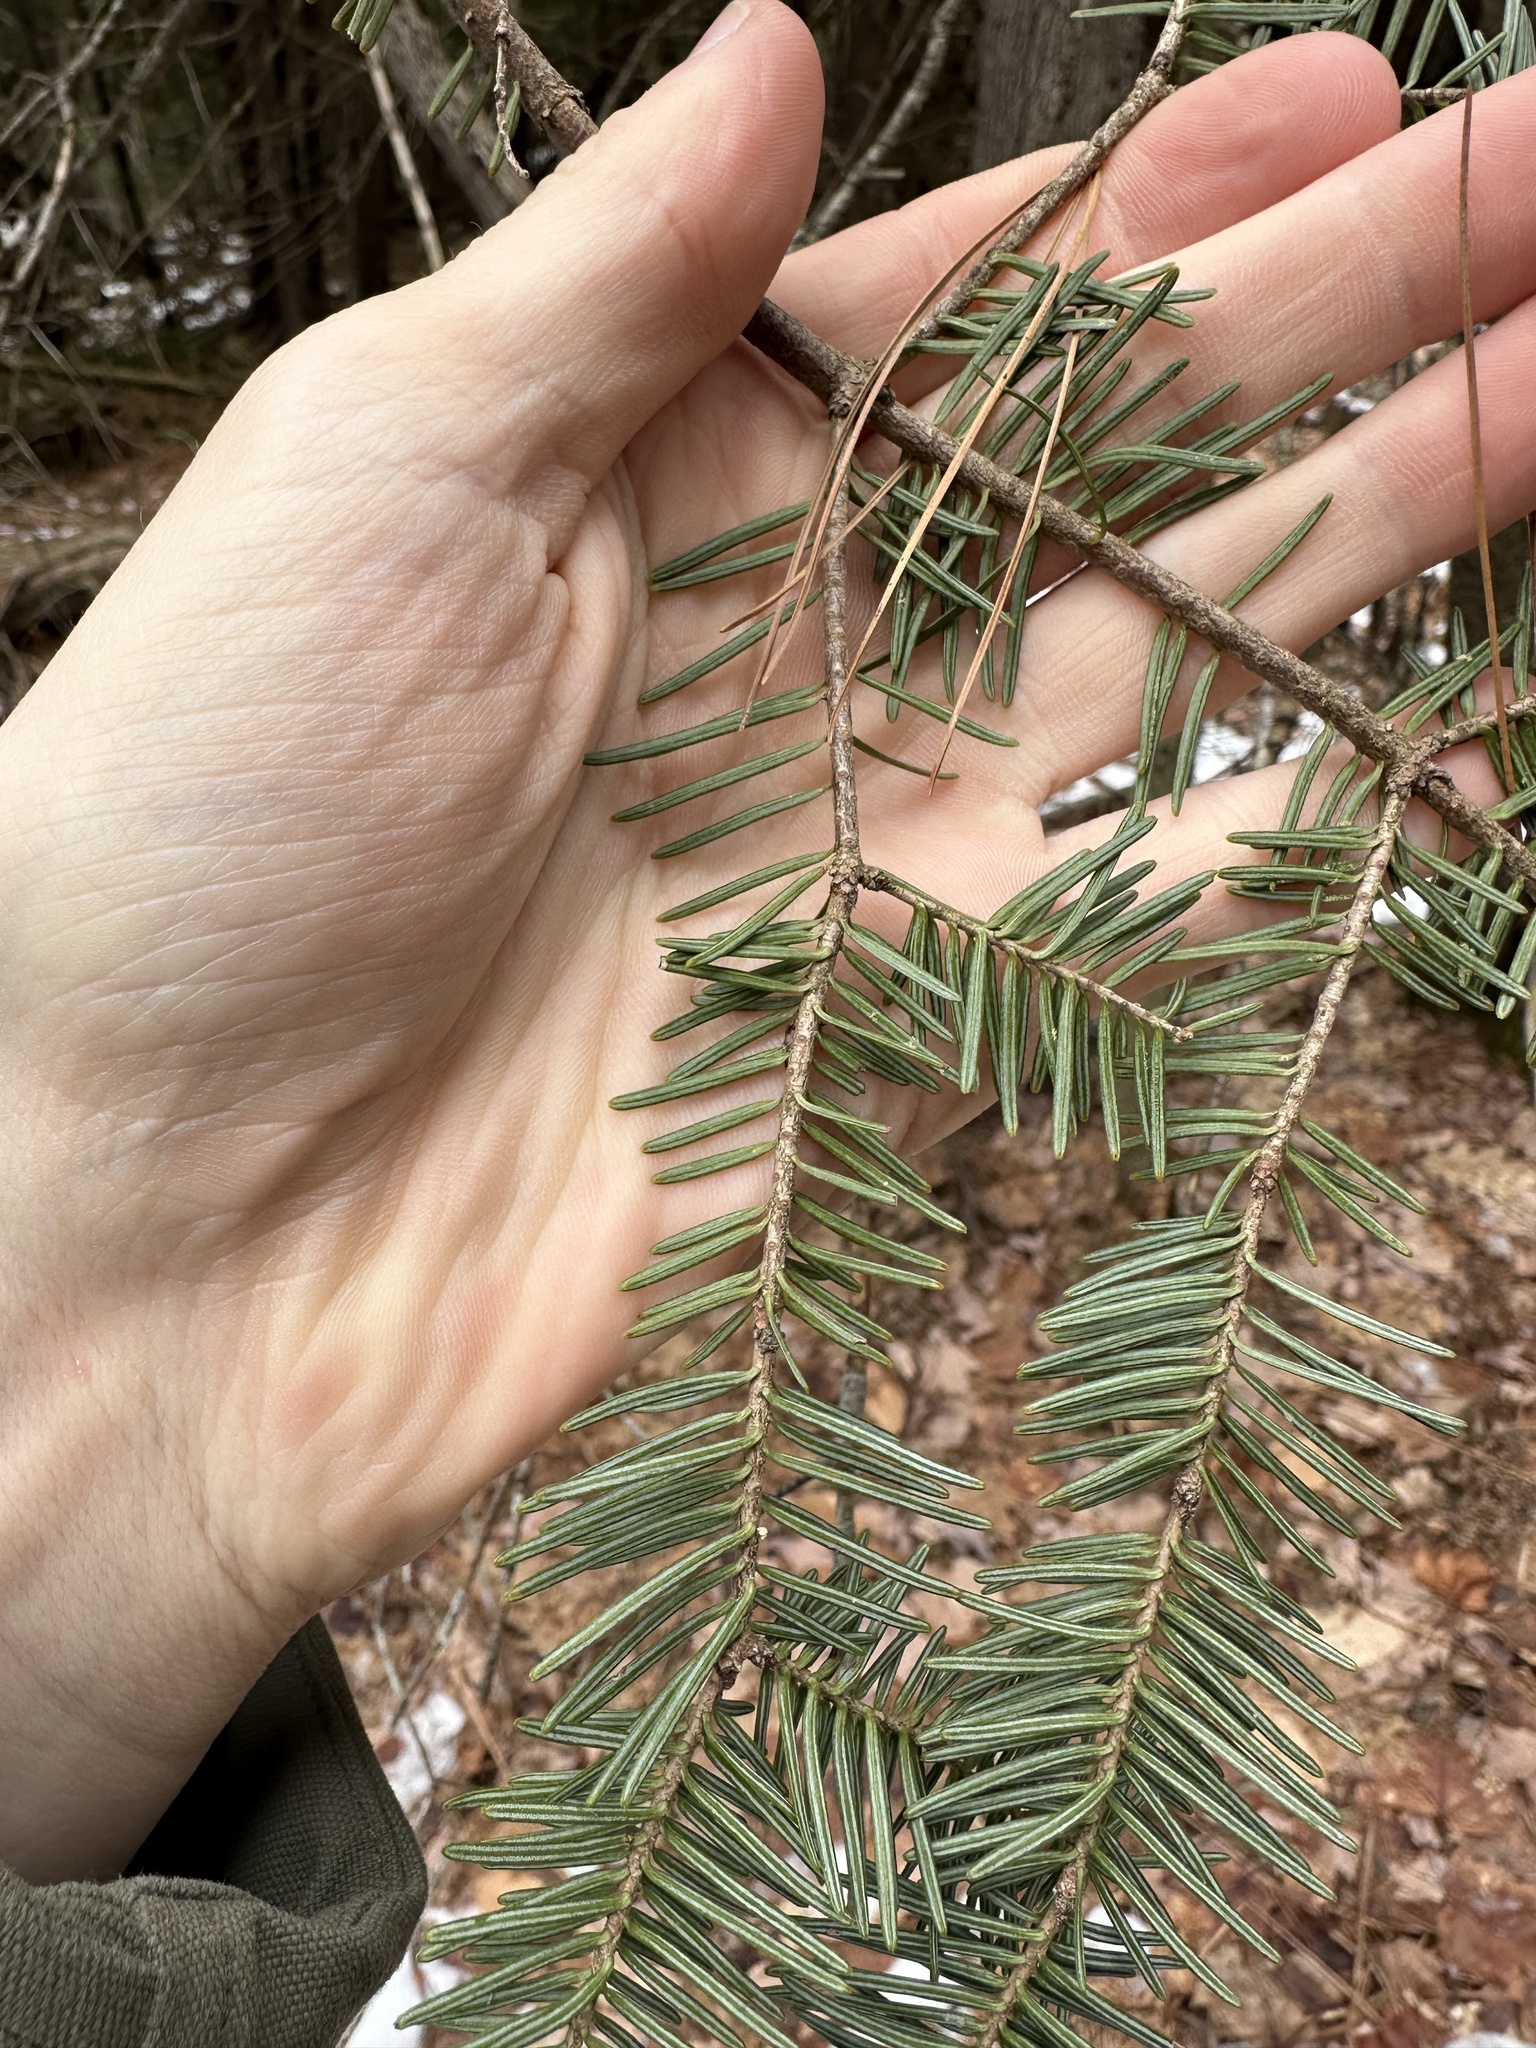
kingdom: Plantae
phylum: Tracheophyta
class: Pinopsida
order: Pinales
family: Pinaceae
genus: Abies
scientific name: Abies balsamea
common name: Balsam fir
